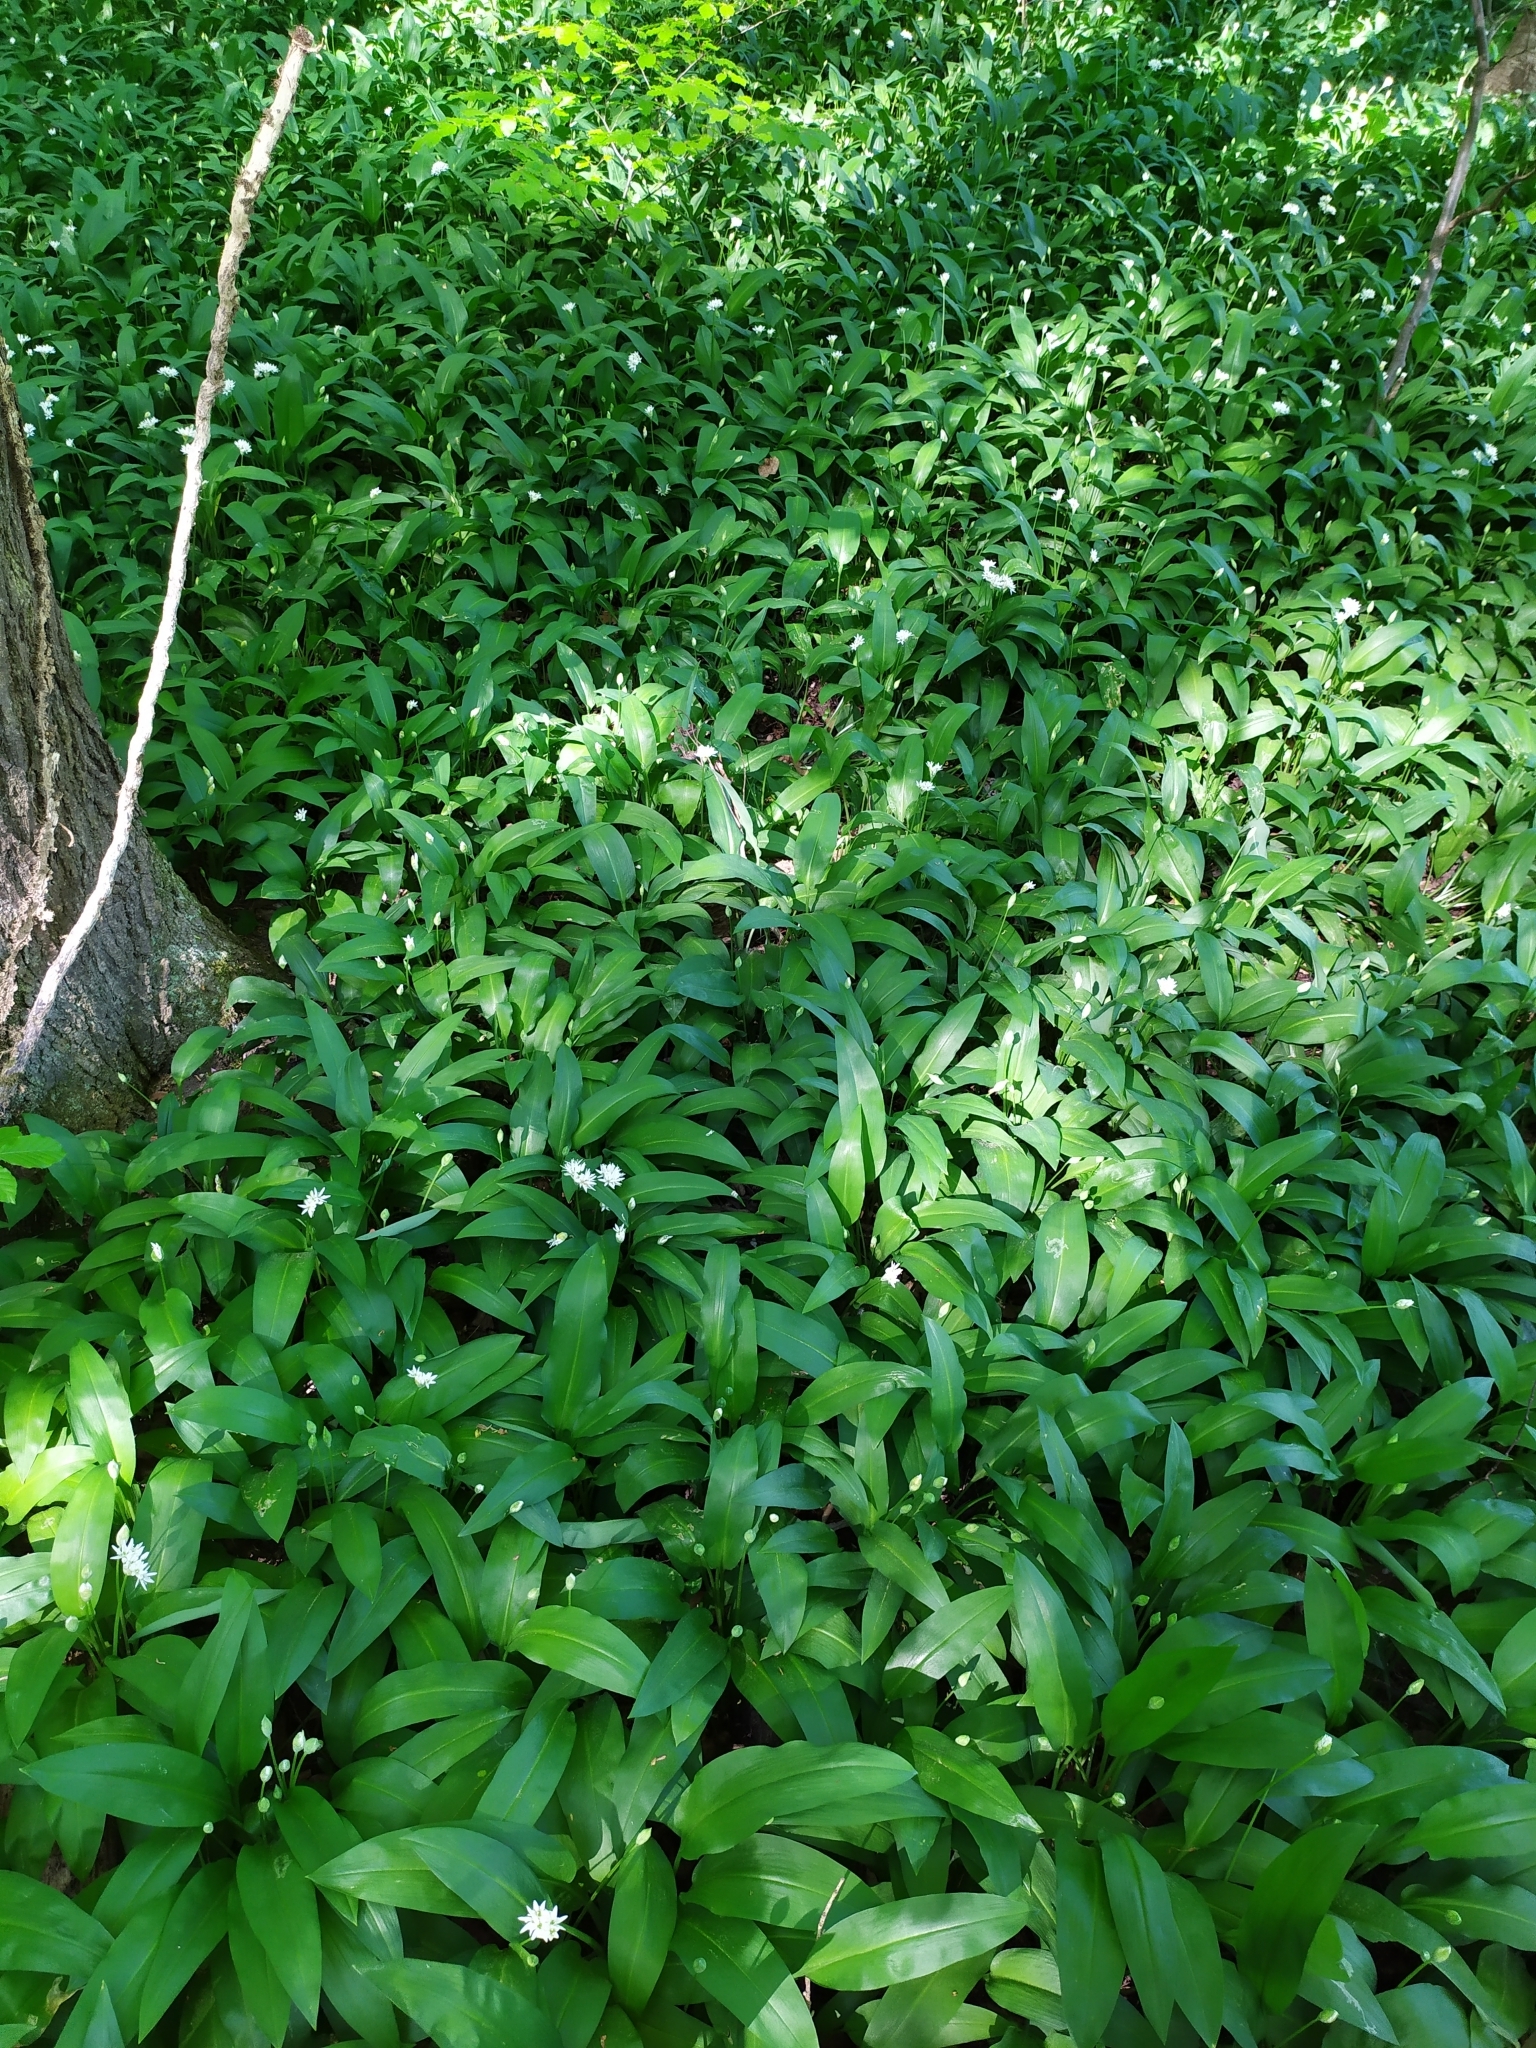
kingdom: Plantae
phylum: Tracheophyta
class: Liliopsida
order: Asparagales
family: Amaryllidaceae
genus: Allium
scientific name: Allium ursinum
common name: Ramsons
